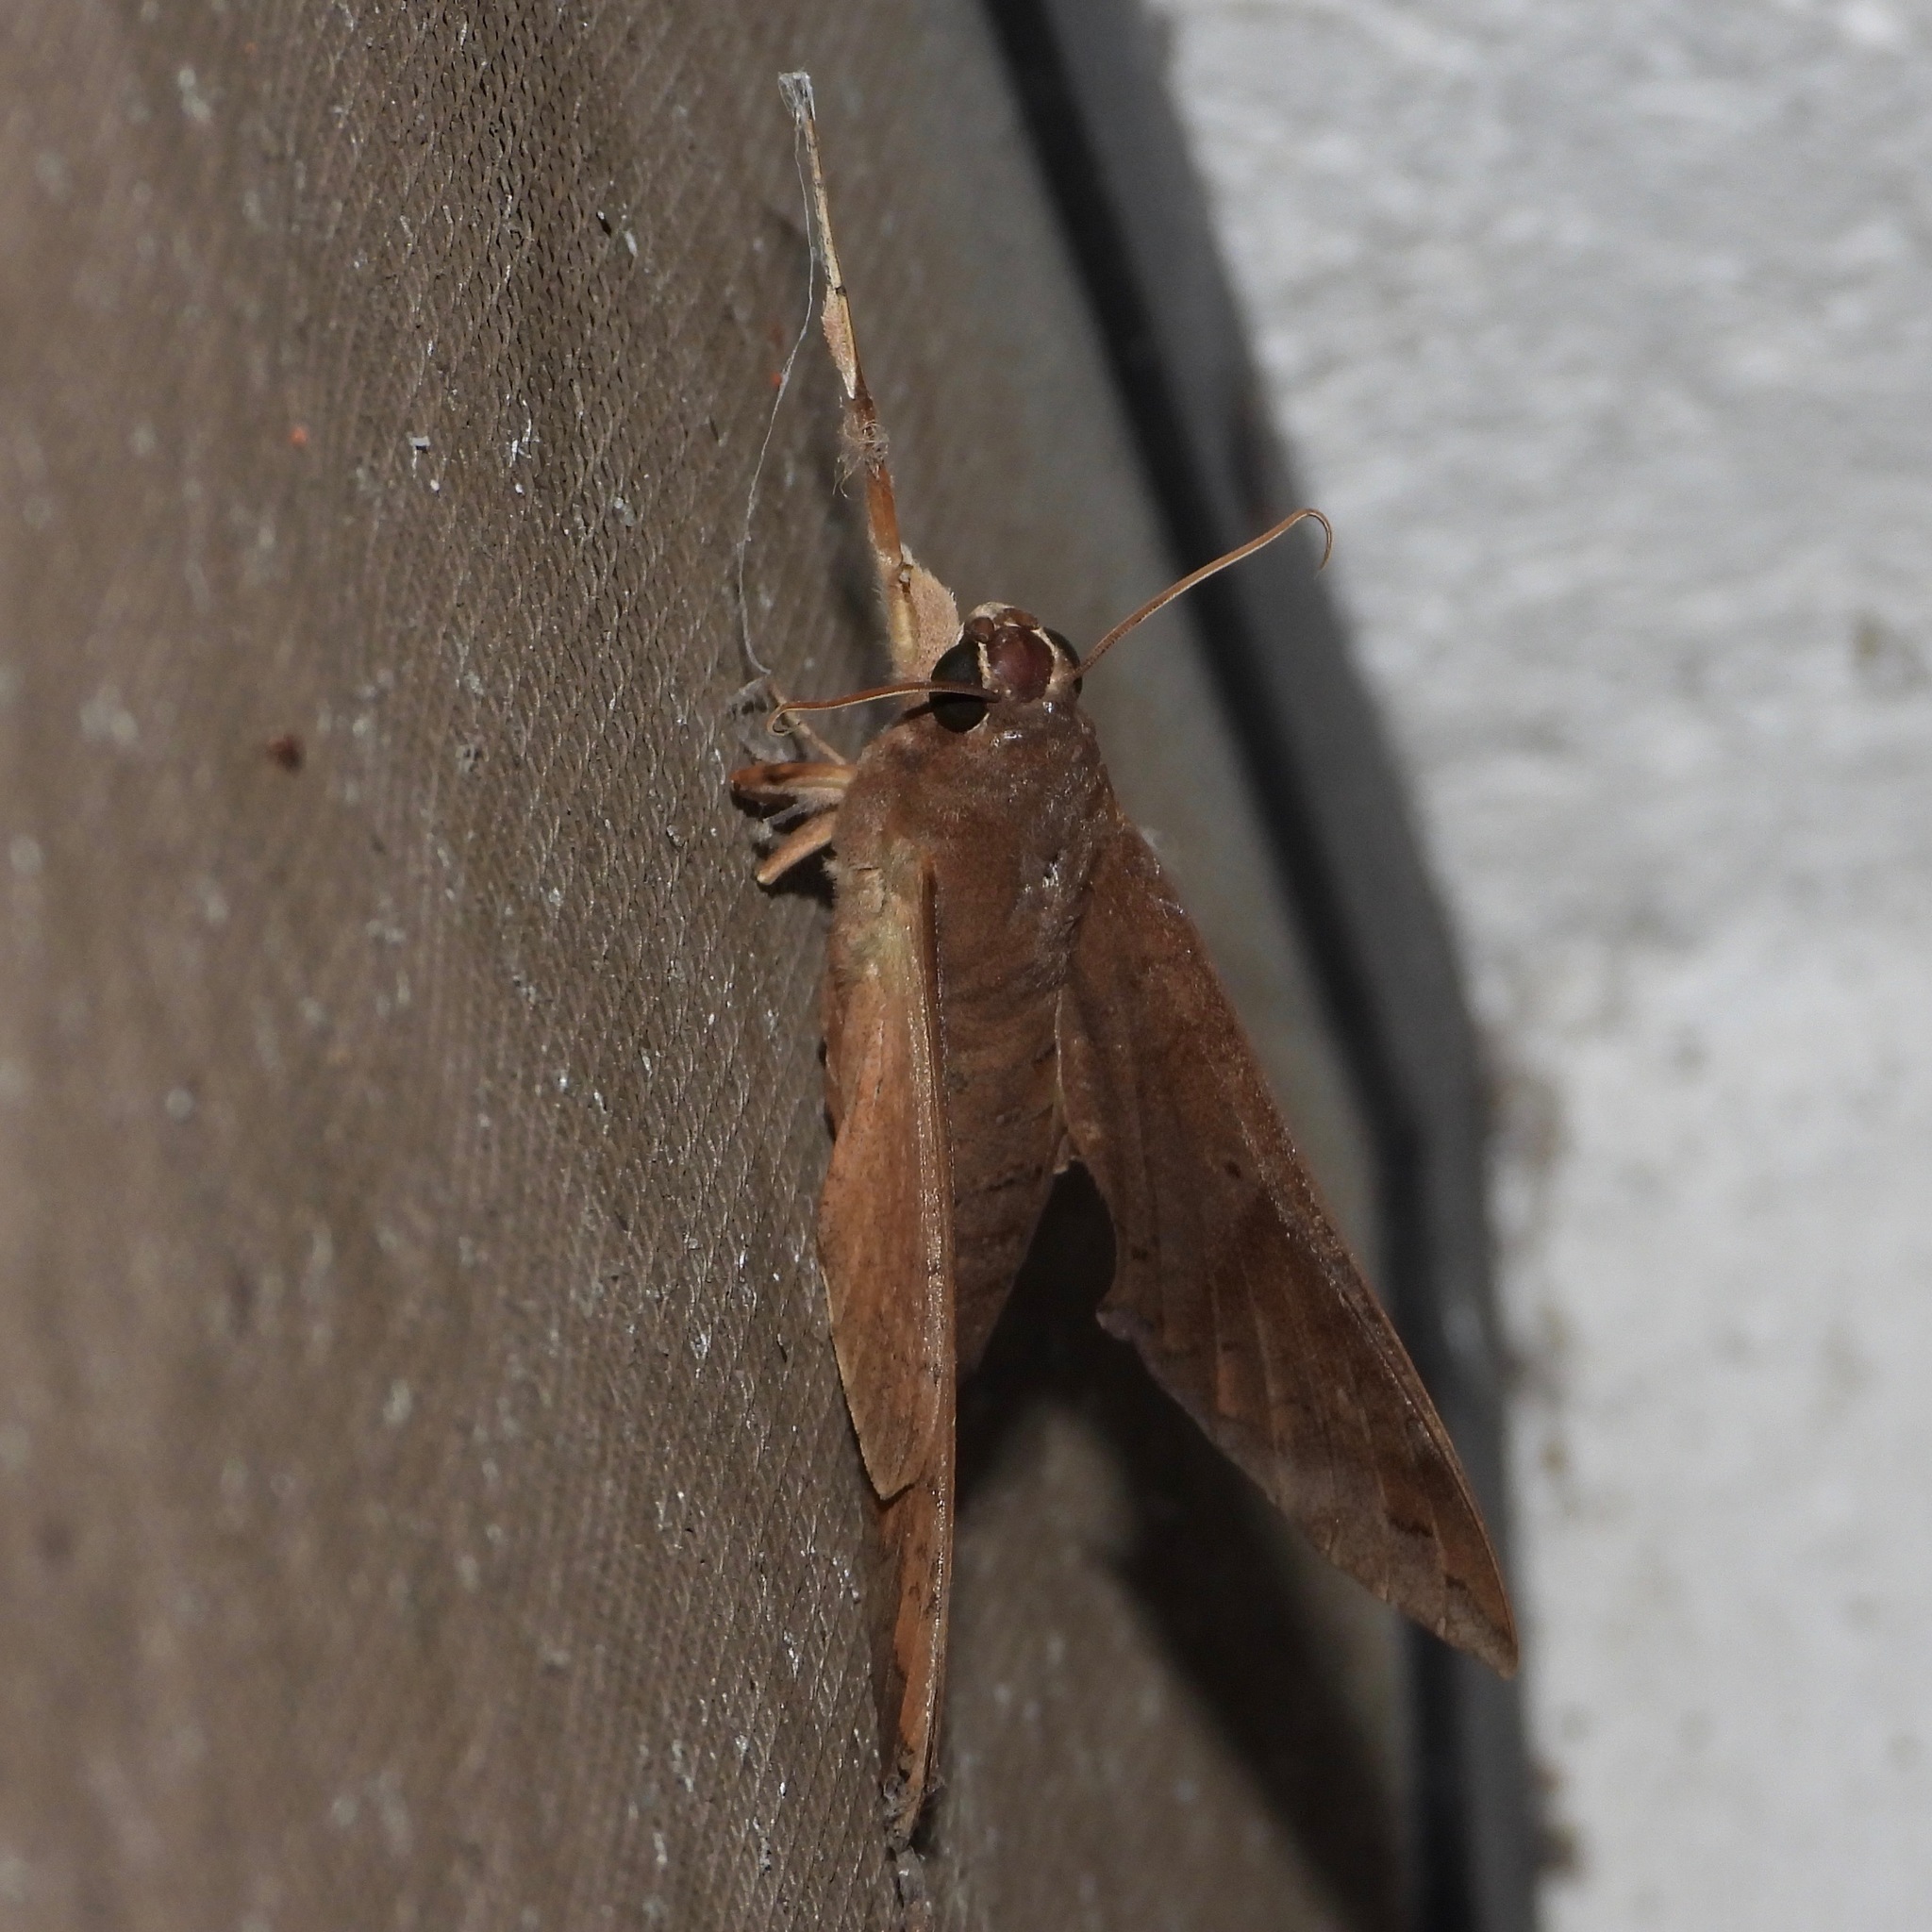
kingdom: Animalia
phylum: Arthropoda
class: Insecta
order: Lepidoptera
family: Sphingidae
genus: Pachylioides
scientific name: Pachylioides resumens
